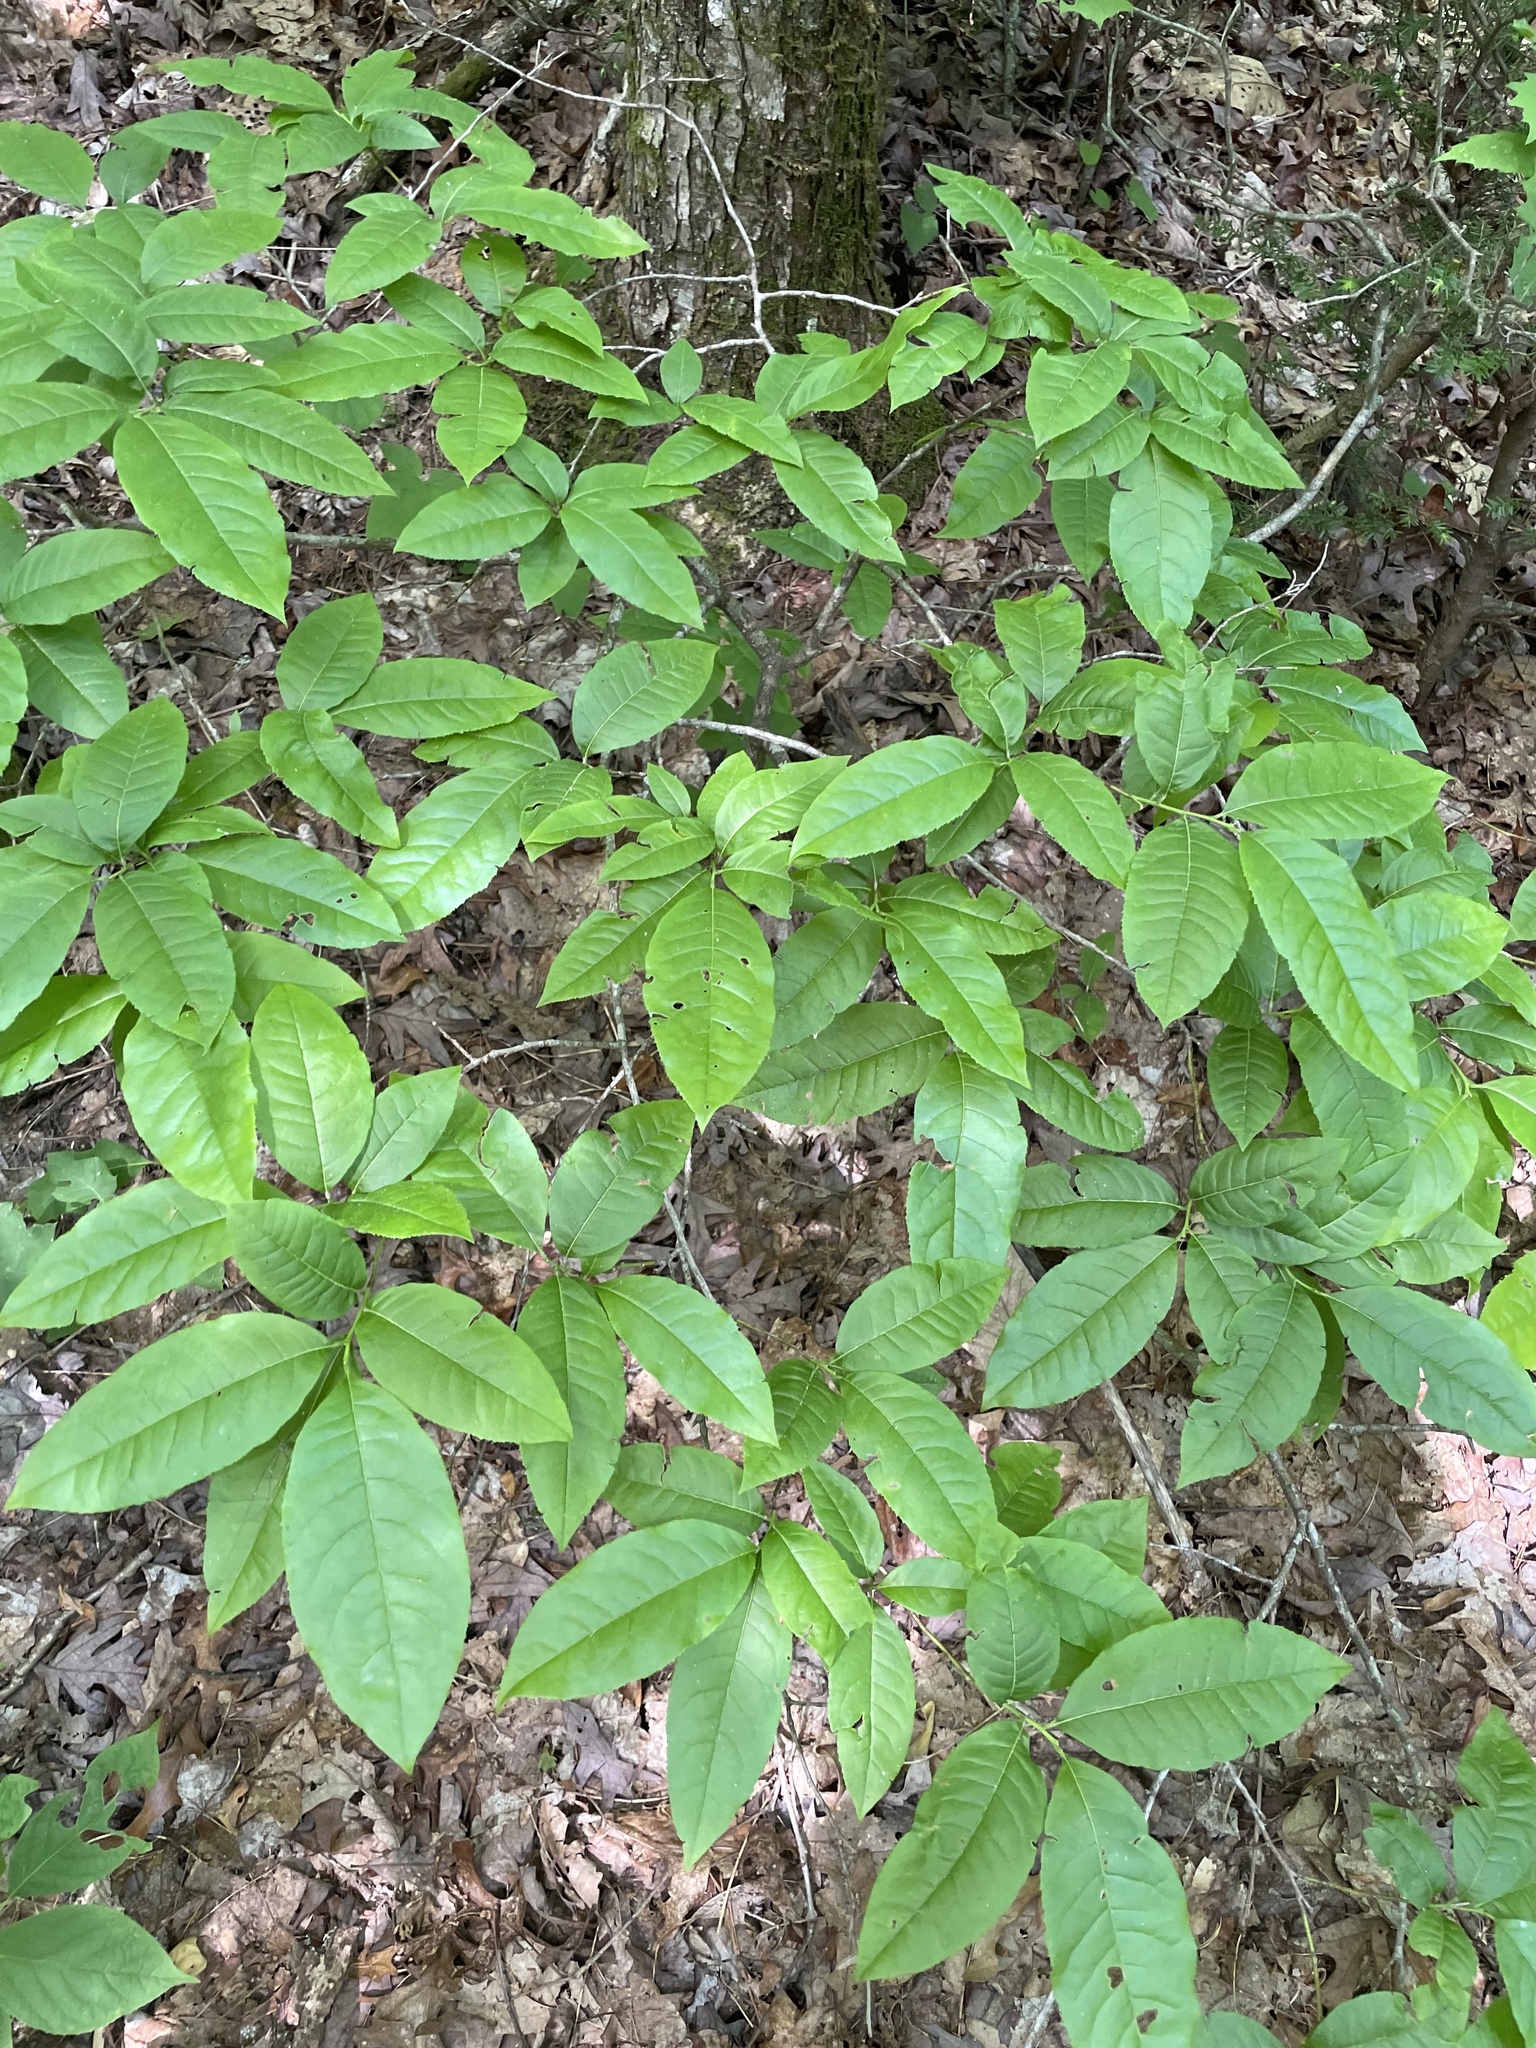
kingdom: Plantae
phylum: Tracheophyta
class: Magnoliopsida
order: Ericales
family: Ericaceae
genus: Oxydendrum
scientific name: Oxydendrum arboreum
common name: Sourwood
